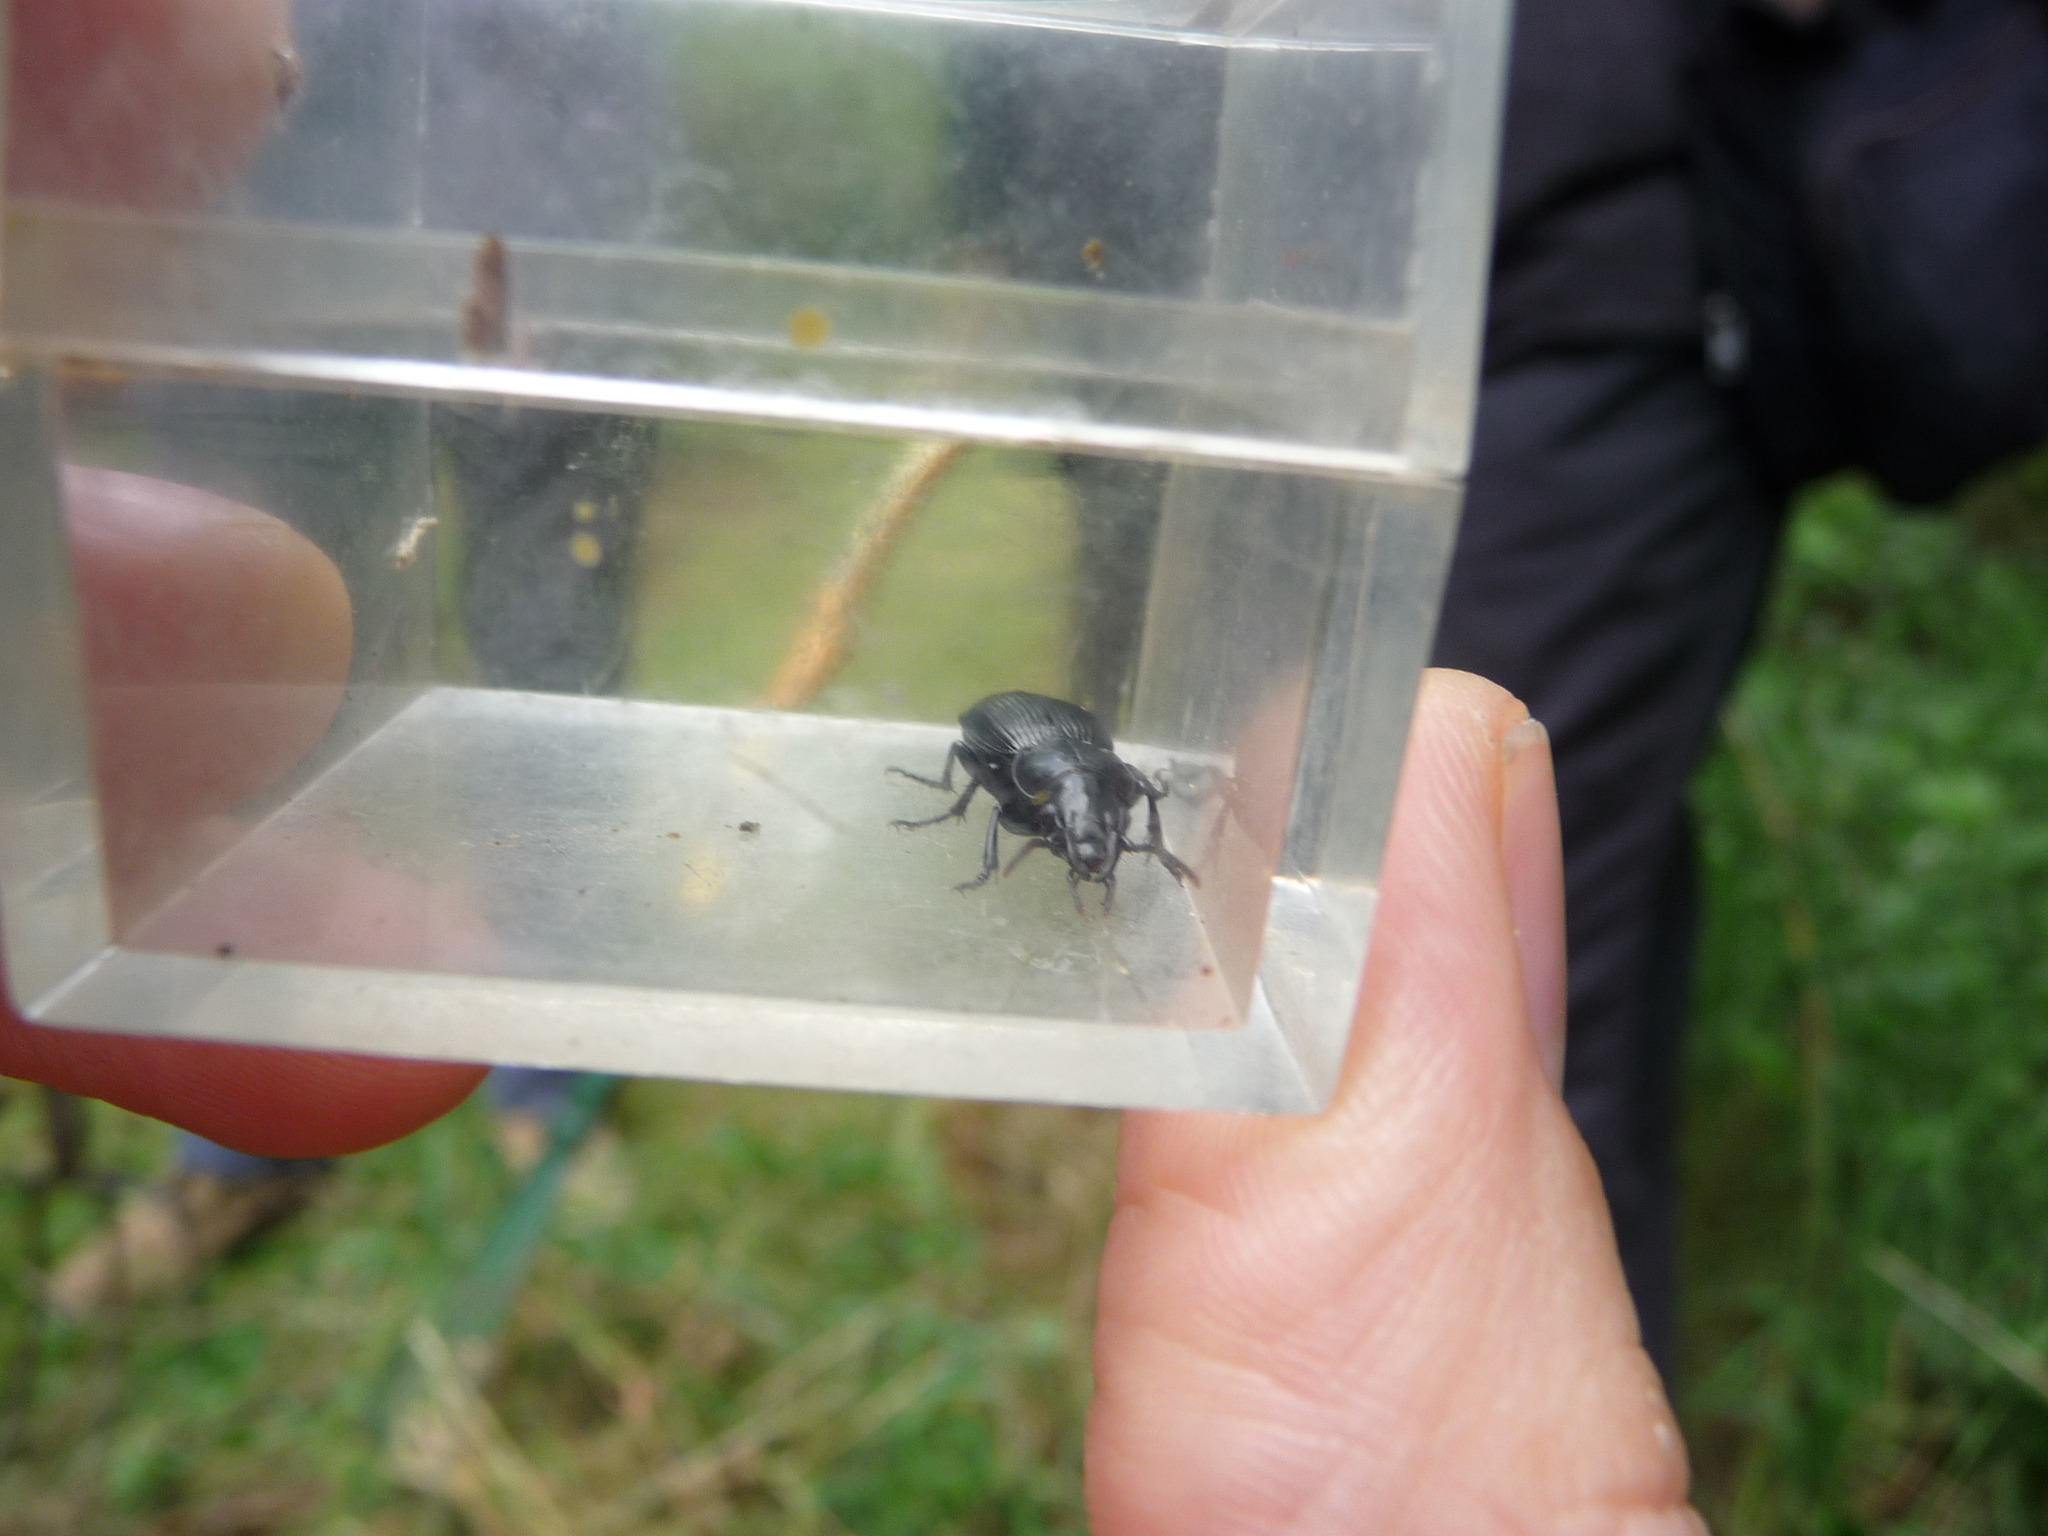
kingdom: Animalia
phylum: Arthropoda
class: Insecta
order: Coleoptera
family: Carabidae
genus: Pterostichus
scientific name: Pterostichus madidus
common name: Black clock
